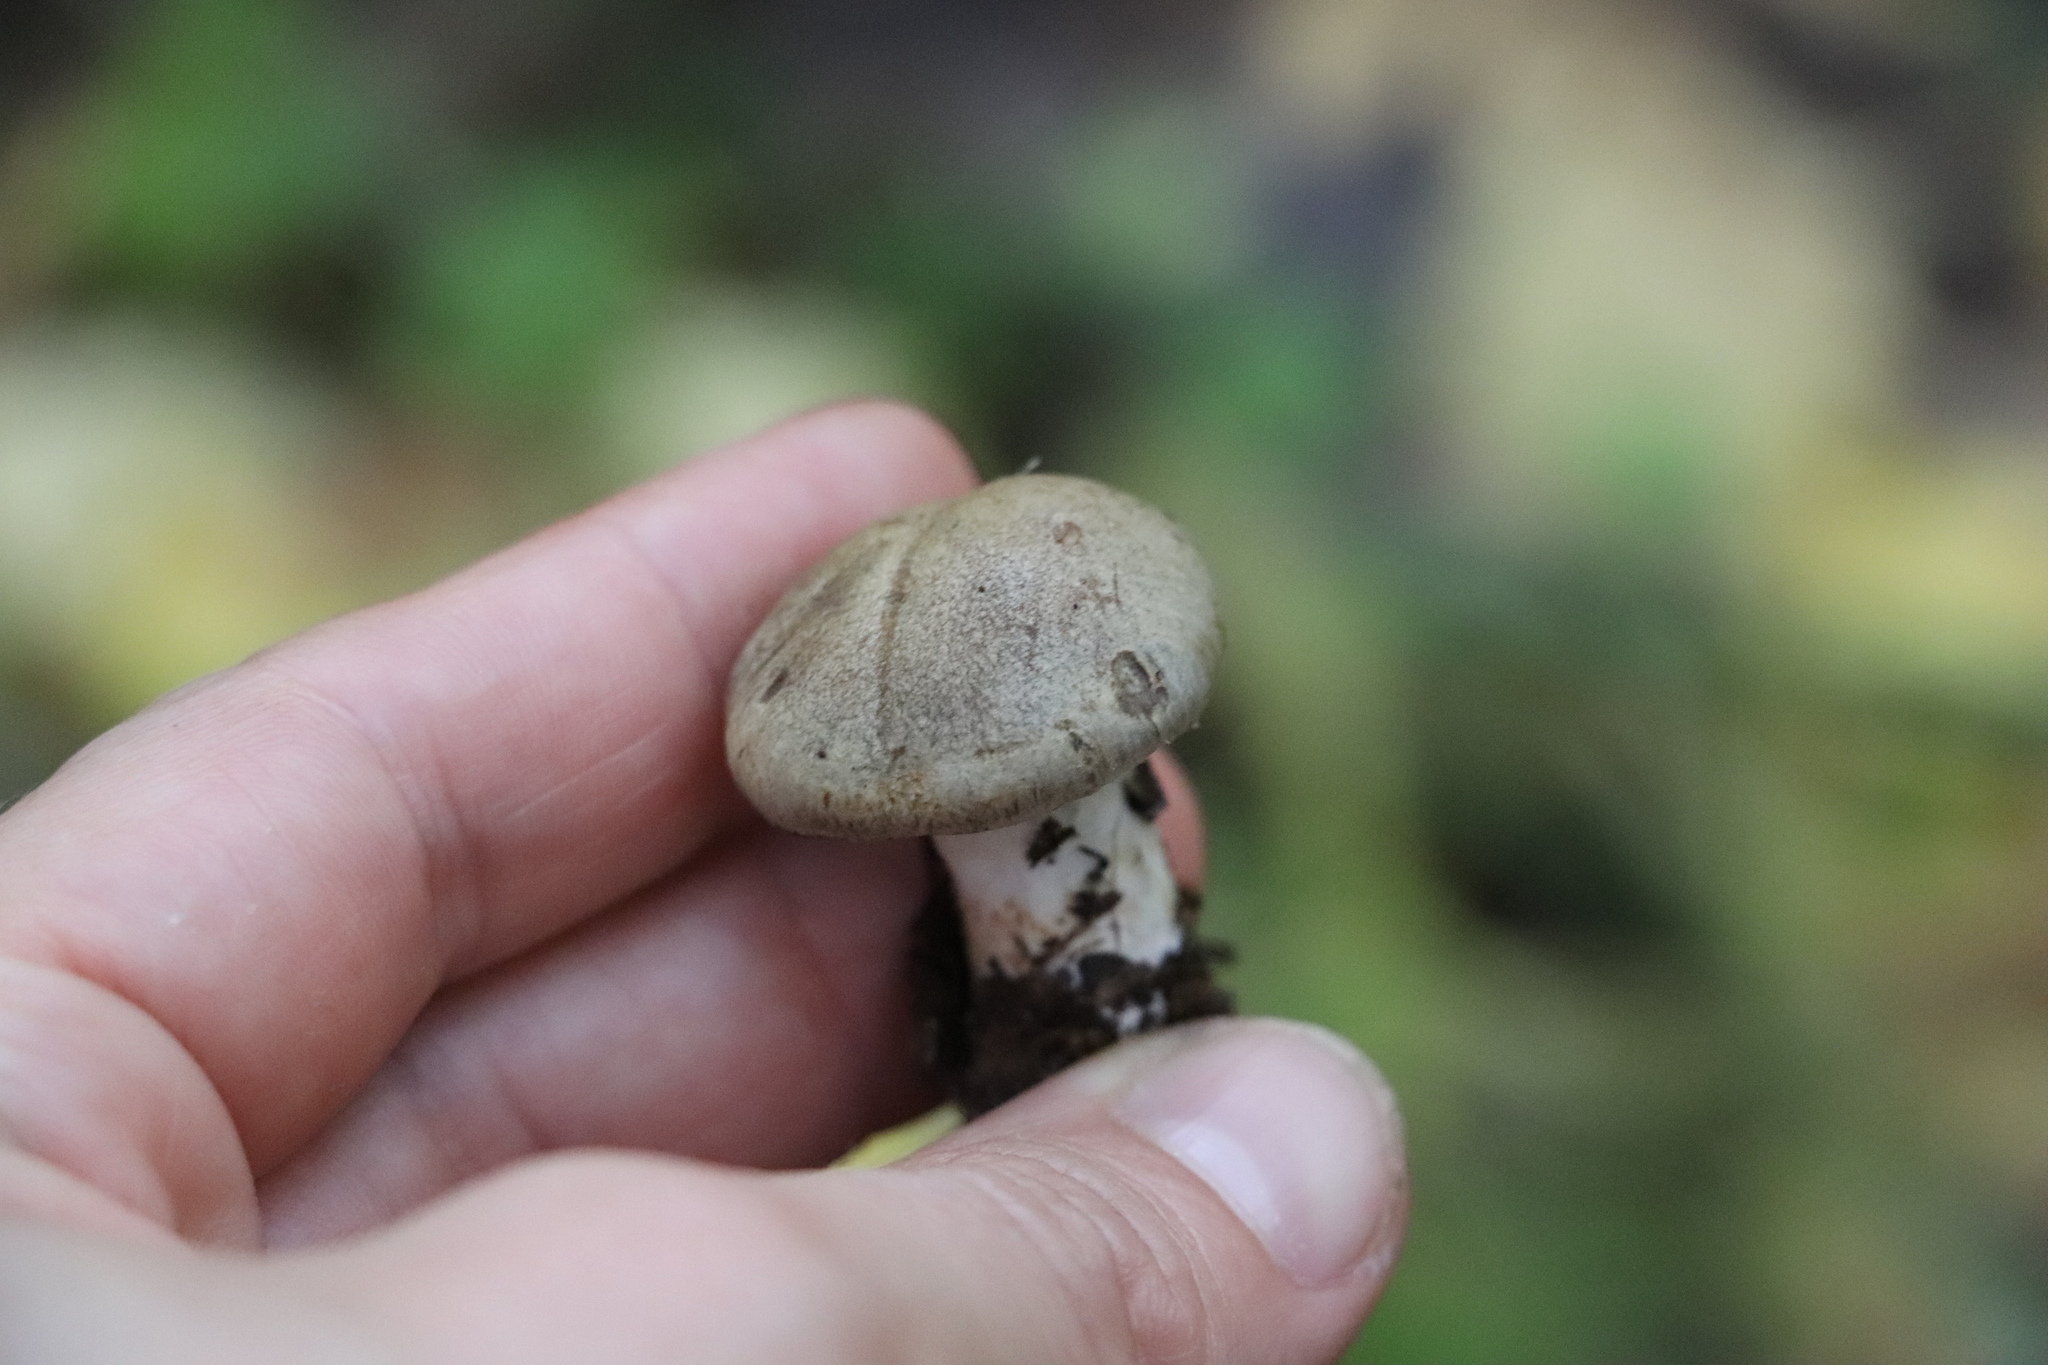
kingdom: Fungi
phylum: Basidiomycota
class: Agaricomycetes
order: Agaricales
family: Cortinariaceae
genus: Thaxterogaster
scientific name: Thaxterogaster porphyropus
